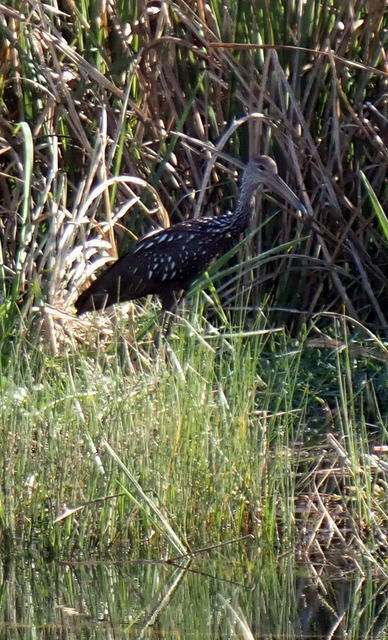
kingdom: Animalia
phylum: Chordata
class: Aves
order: Gruiformes
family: Aramidae
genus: Aramus
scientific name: Aramus guarauna
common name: Limpkin
